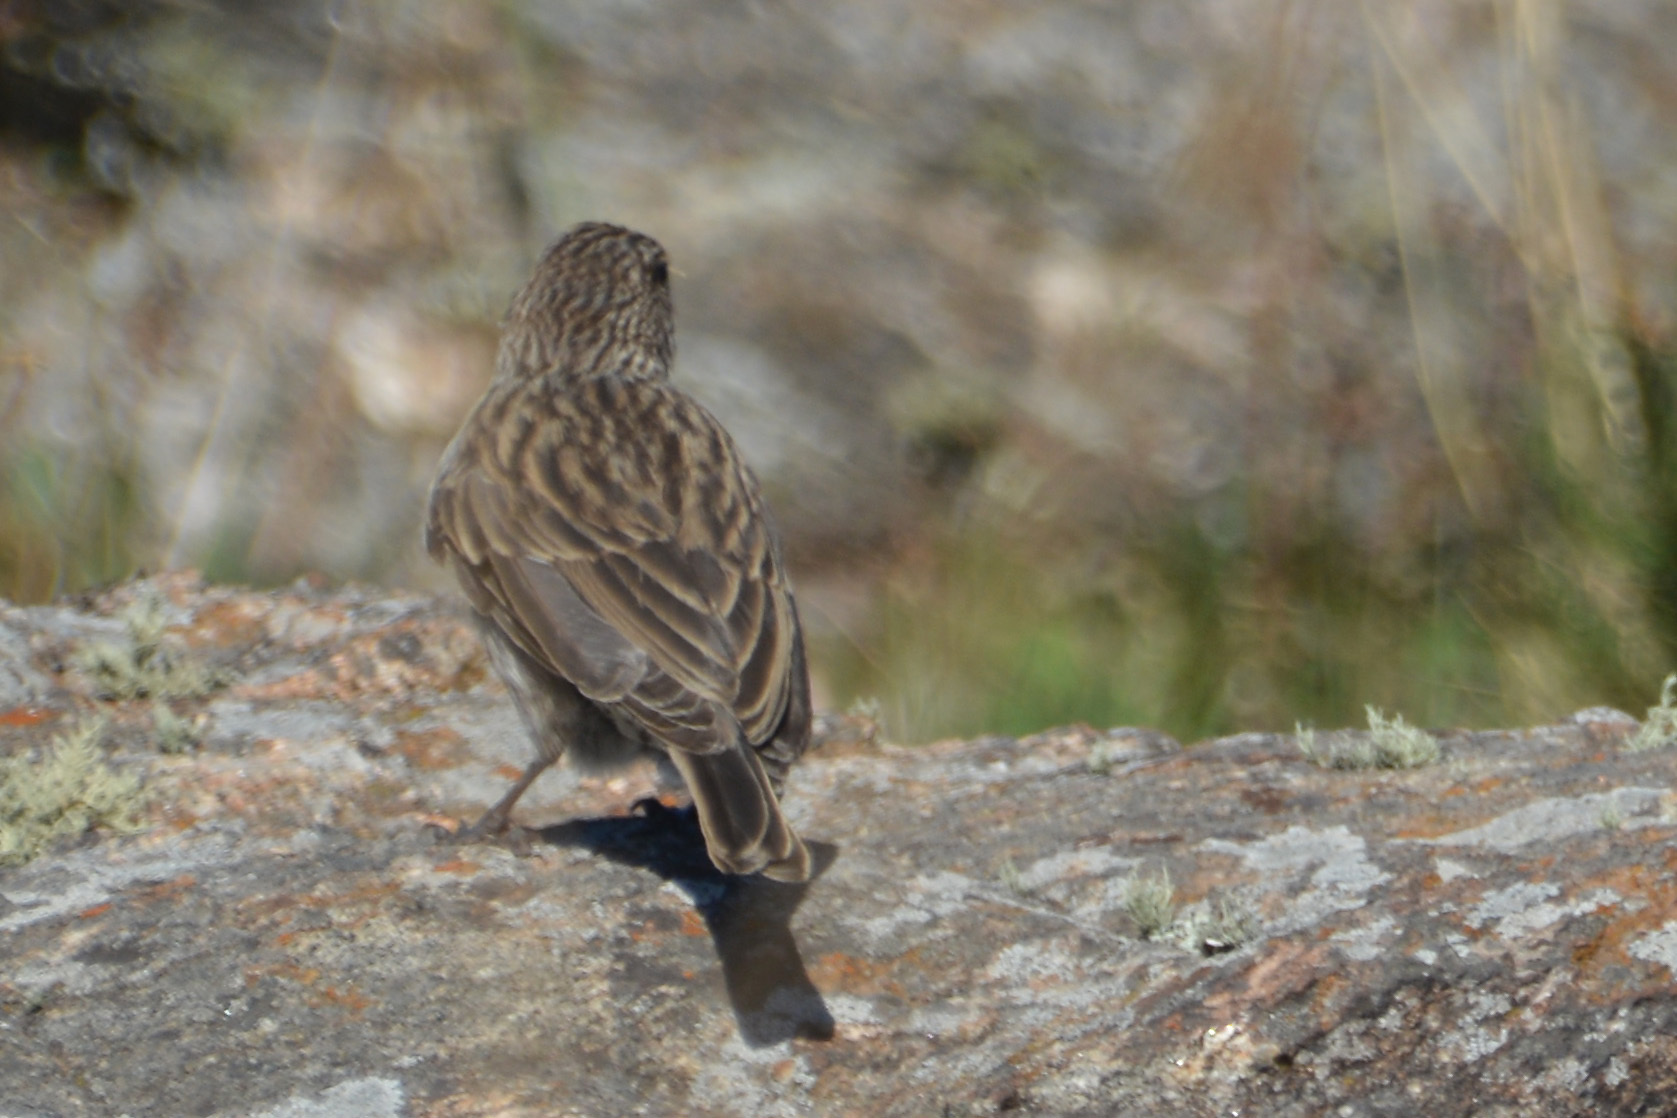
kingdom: Animalia
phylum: Chordata
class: Aves
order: Passeriformes
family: Thraupidae
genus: Geospizopsis
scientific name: Geospizopsis unicolor
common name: Plumbeous sierra-finch
